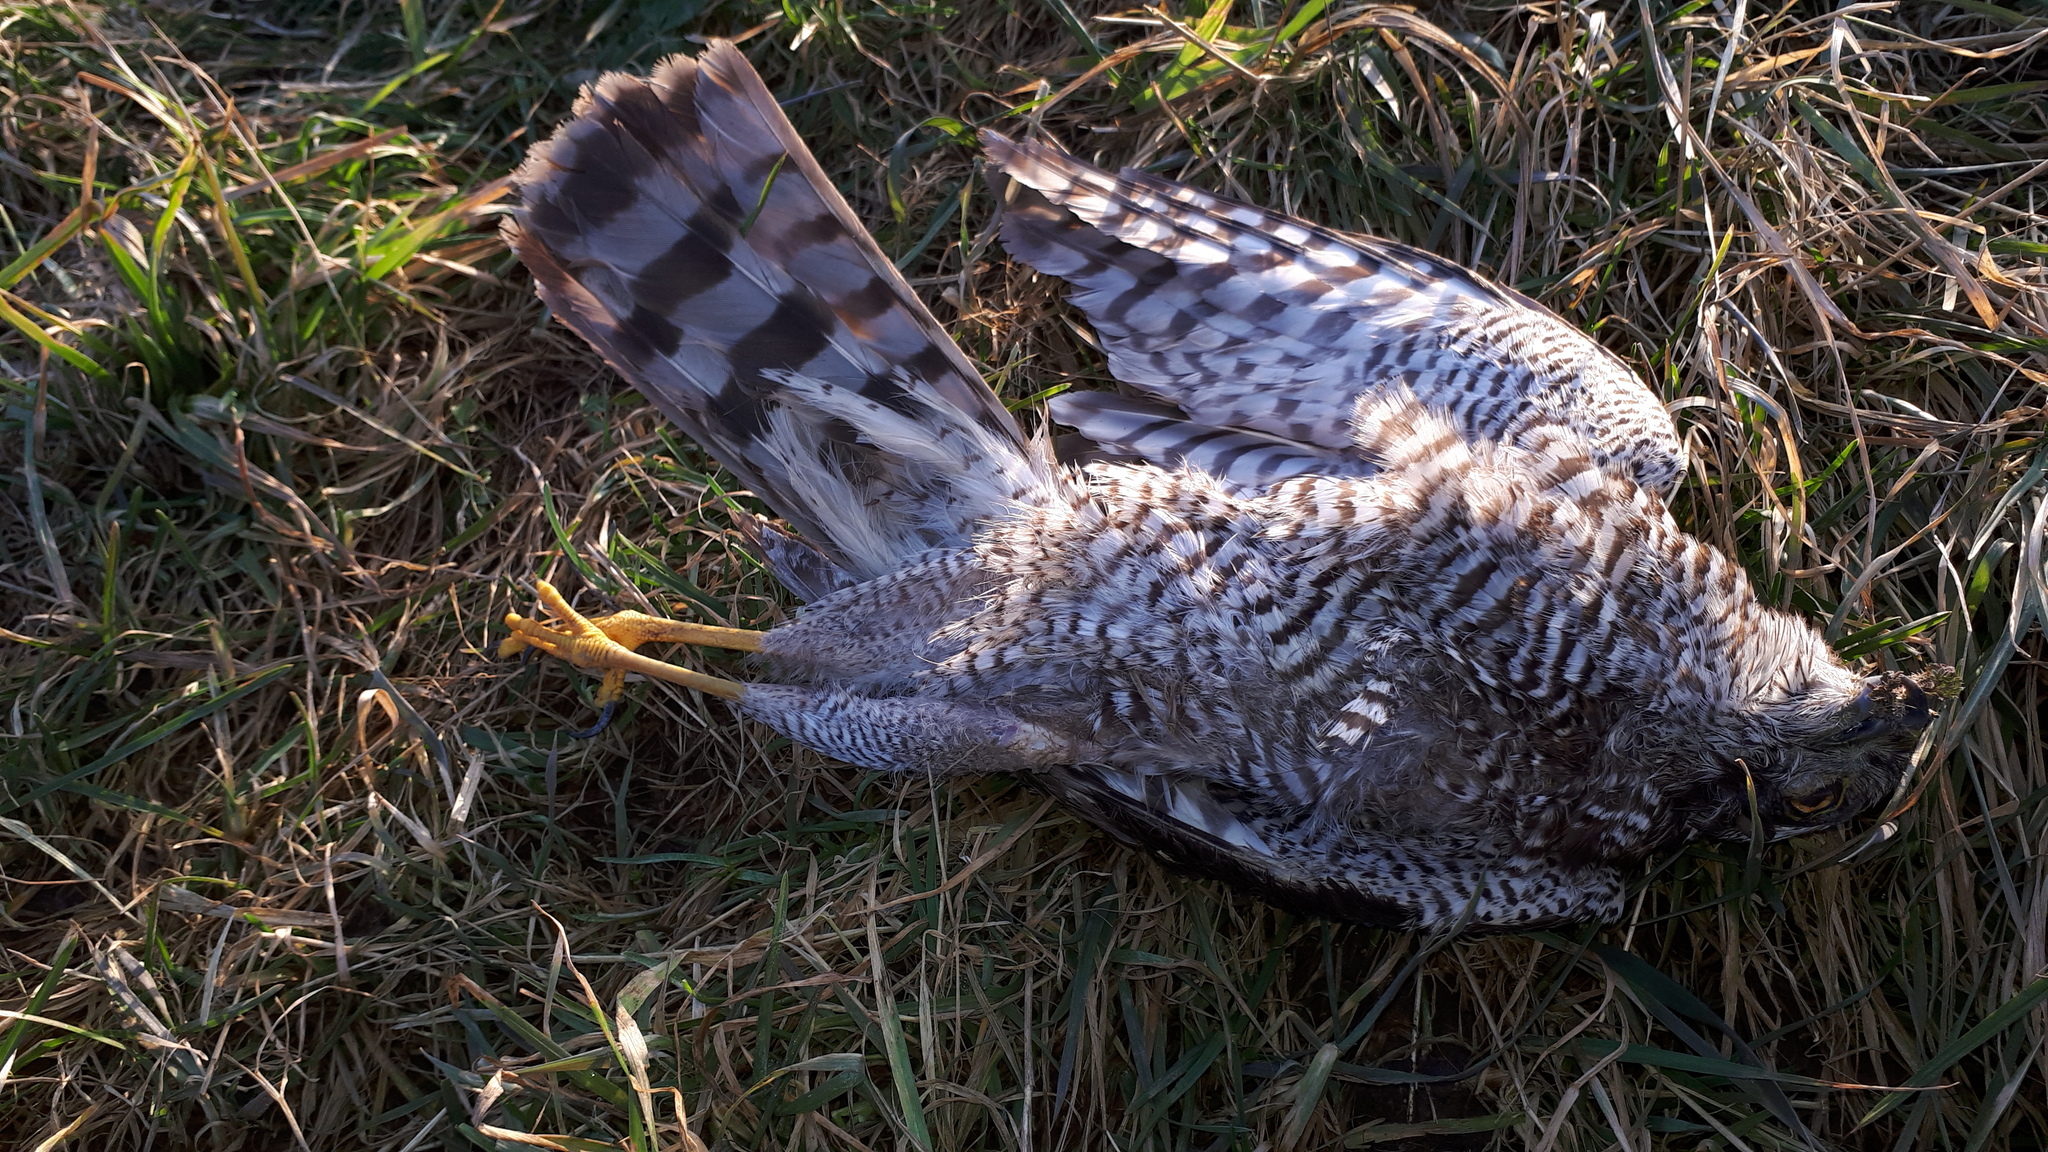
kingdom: Animalia
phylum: Chordata
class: Aves
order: Accipitriformes
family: Accipitridae
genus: Accipiter
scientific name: Accipiter nisus
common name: Eurasian sparrowhawk
